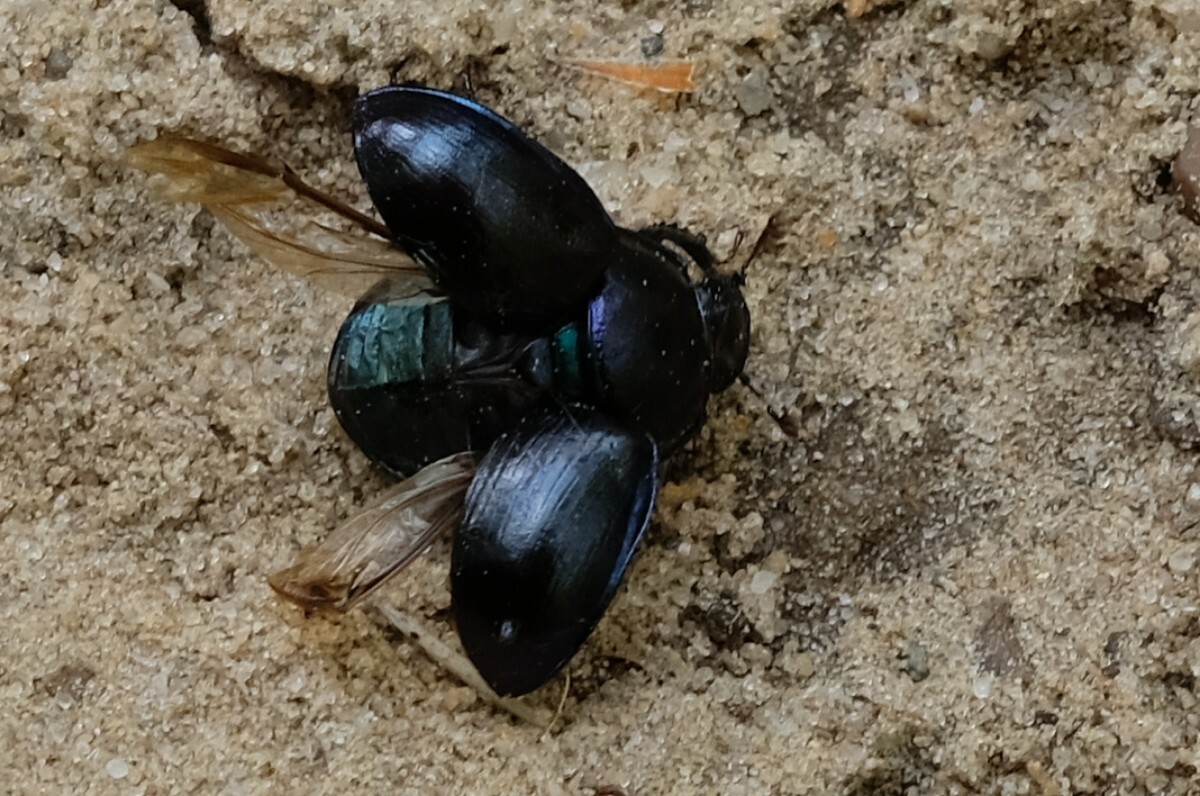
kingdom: Animalia
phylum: Arthropoda
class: Insecta
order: Coleoptera
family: Geotrupidae
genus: Anoplotrupes
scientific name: Anoplotrupes stercorosus
